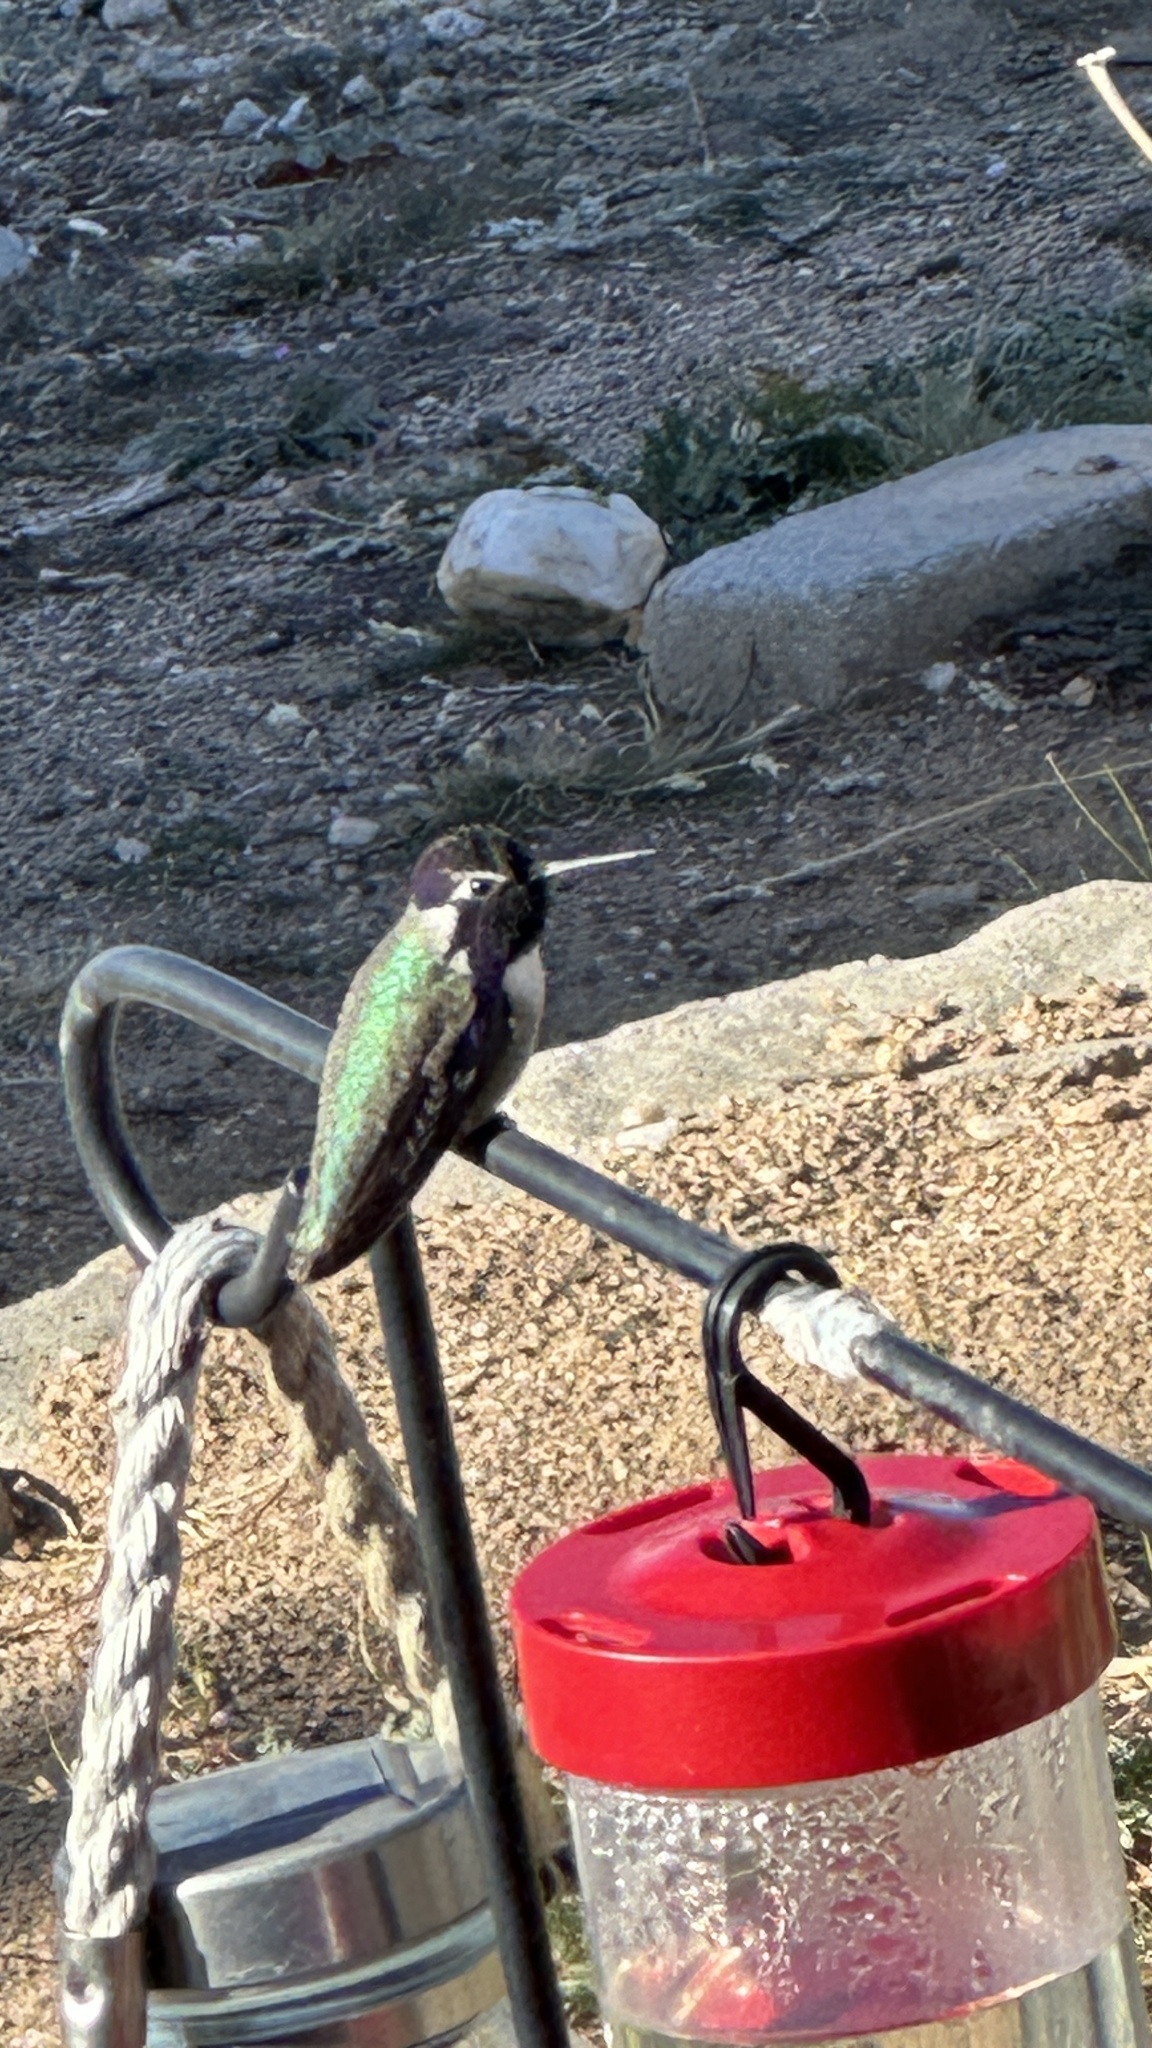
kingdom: Animalia
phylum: Chordata
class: Aves
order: Apodiformes
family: Trochilidae
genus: Calypte
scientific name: Calypte costae
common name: Costa's hummingbird
